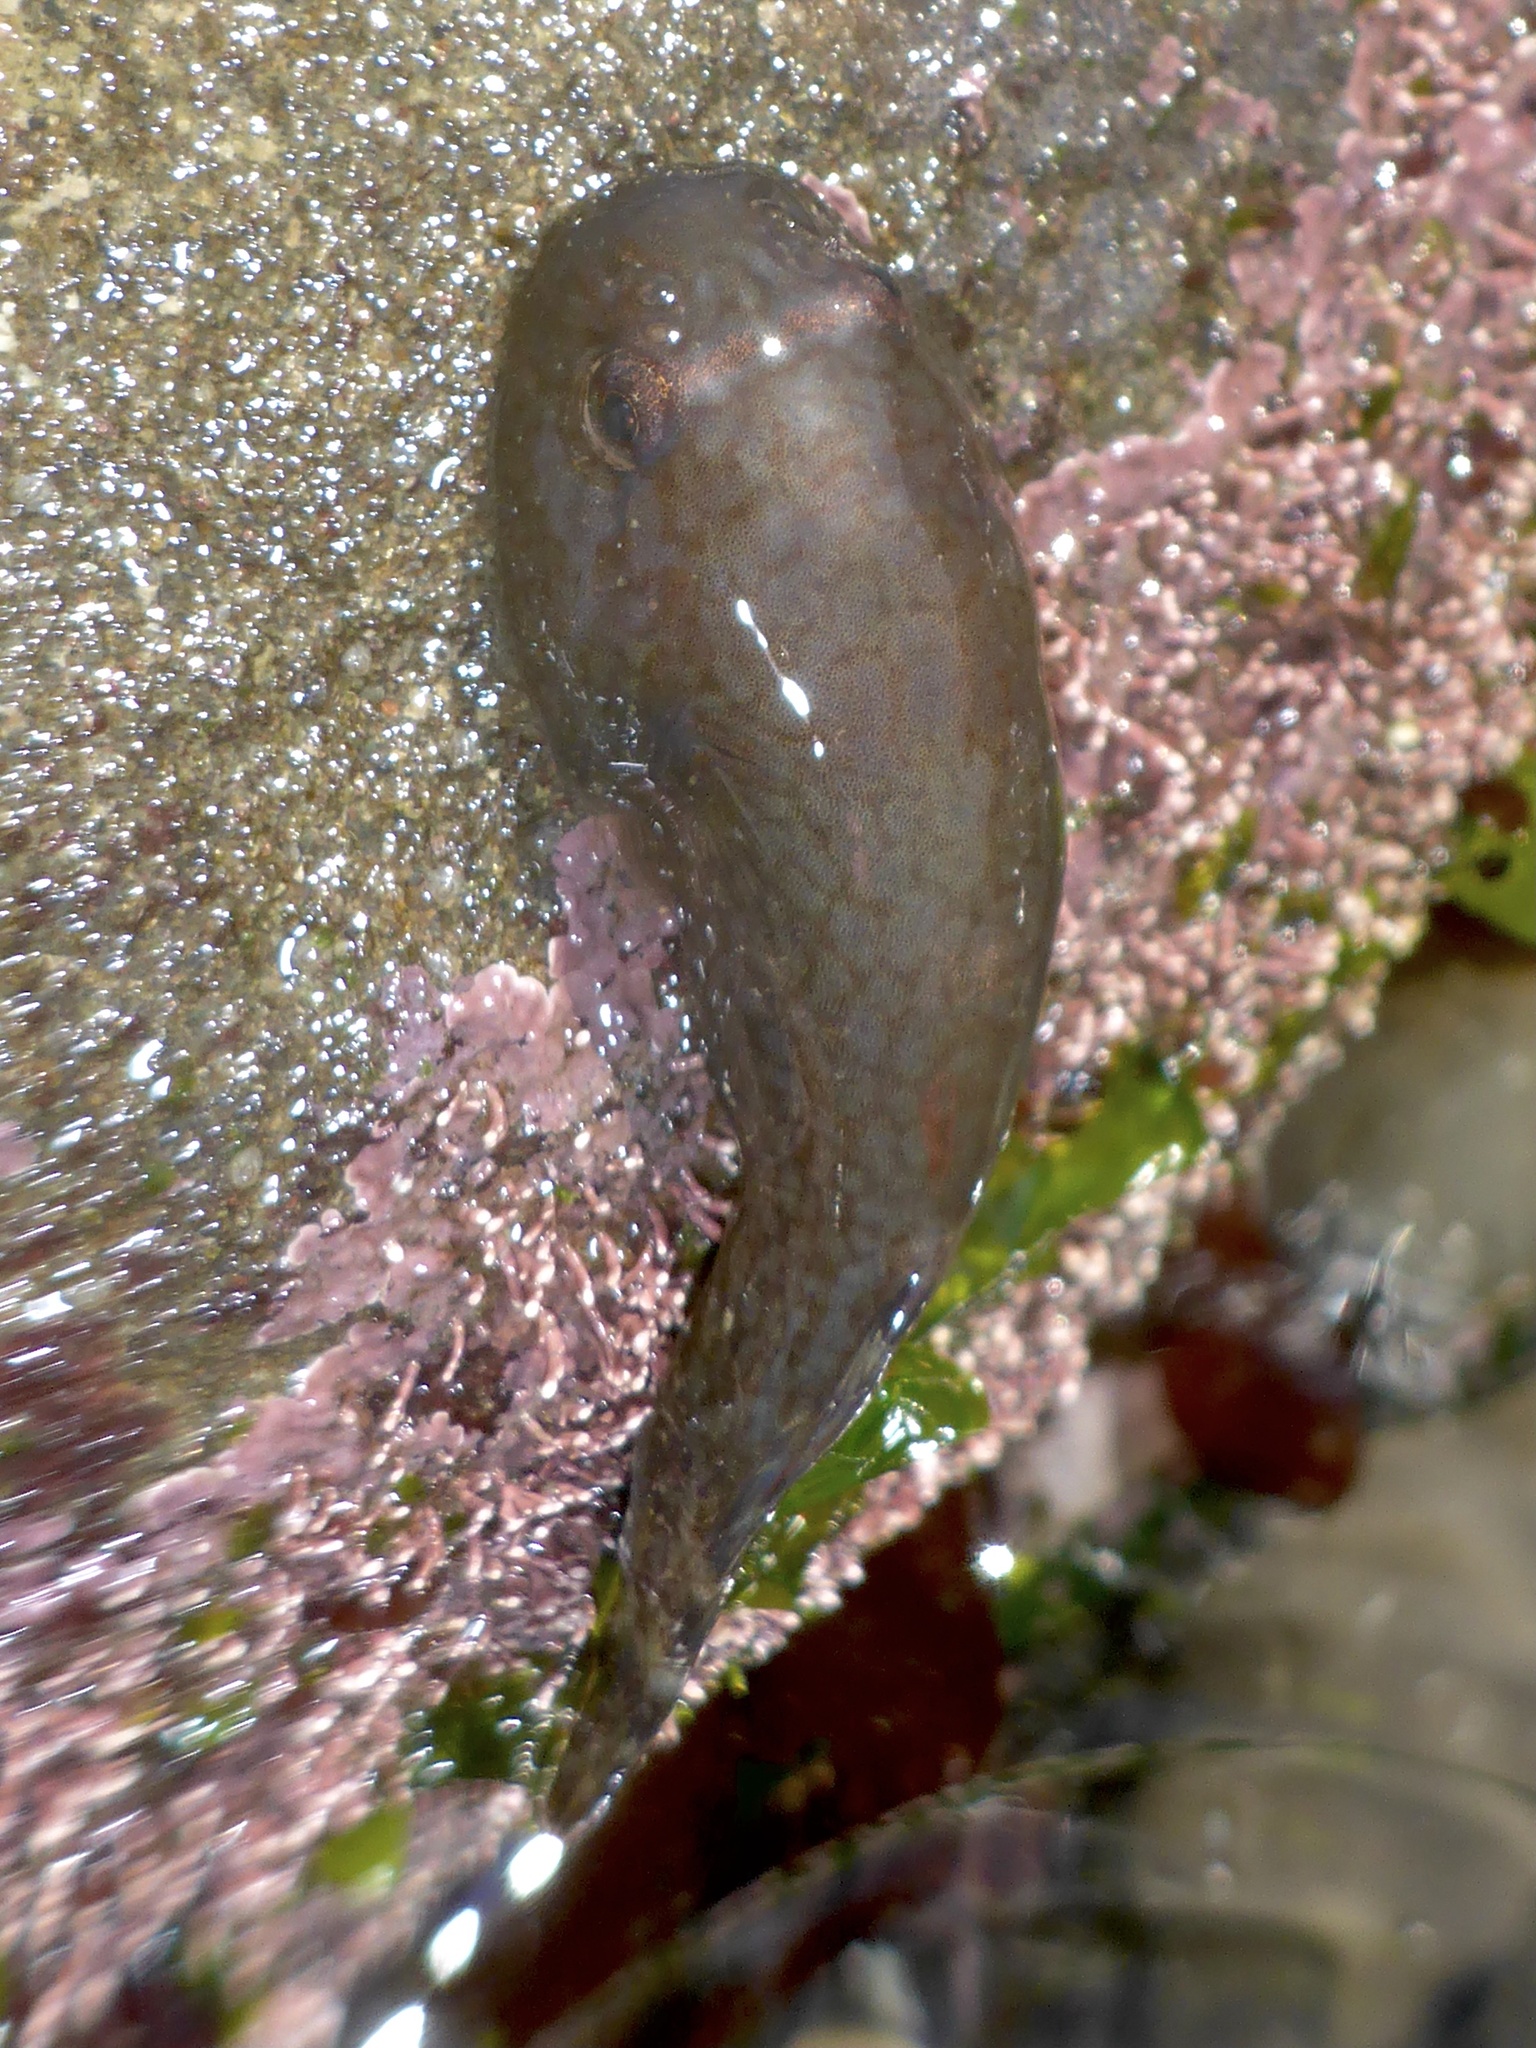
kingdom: Animalia
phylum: Chordata
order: Gobiesociformes
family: Gobiesocidae
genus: Gobiesox
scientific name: Gobiesox maeandricus
